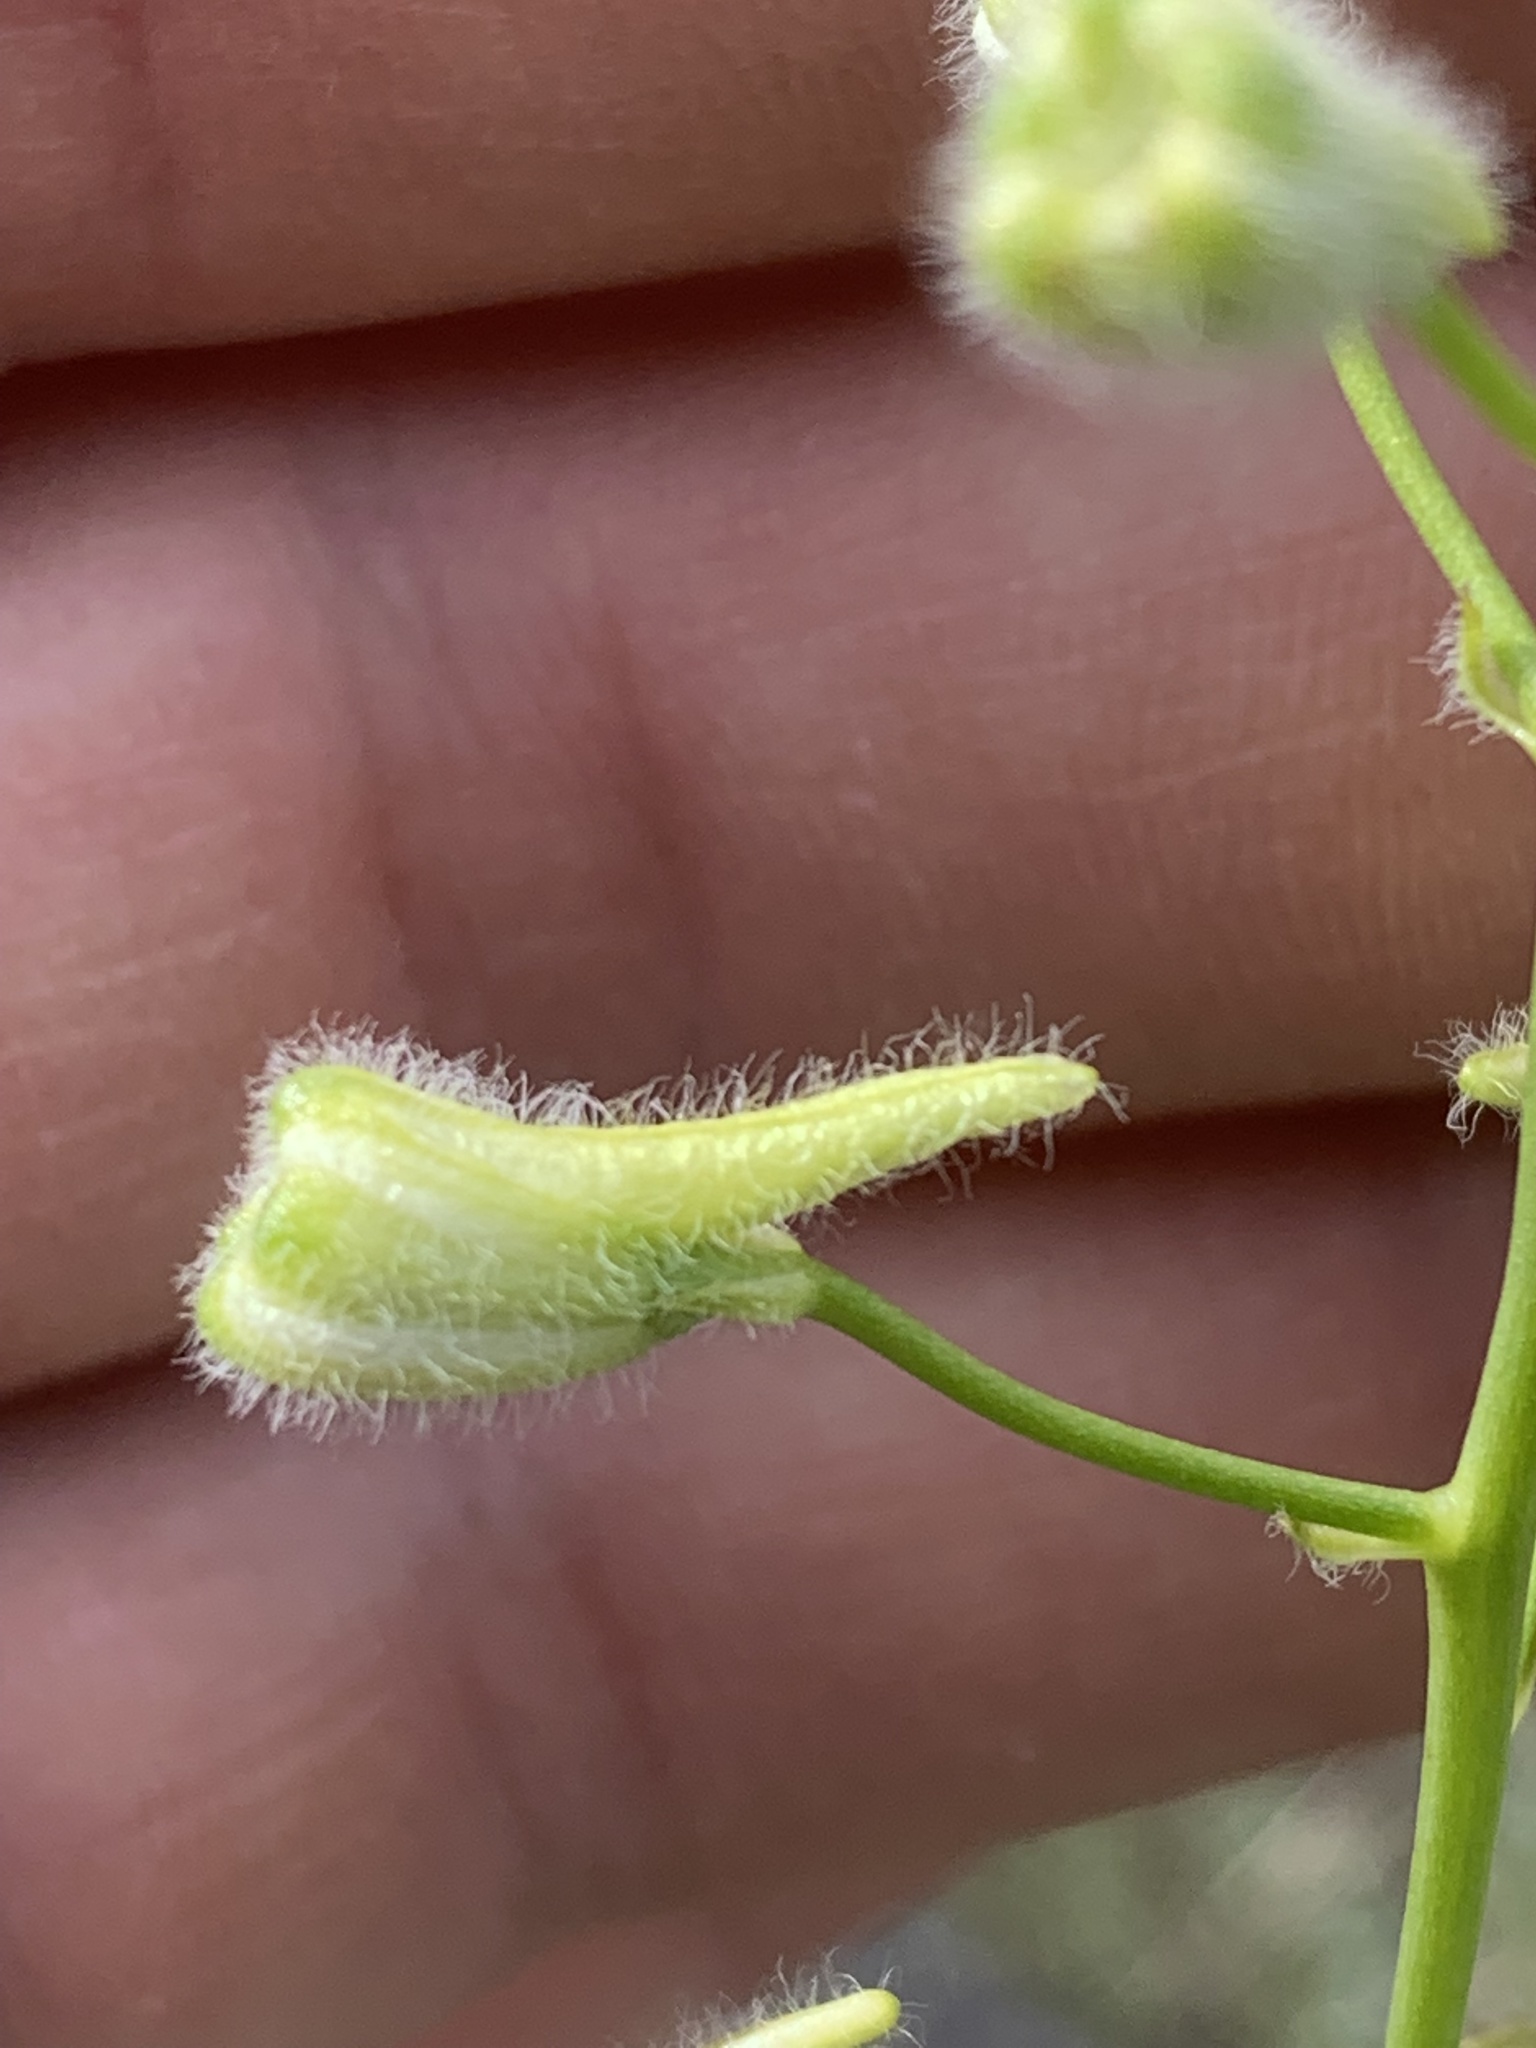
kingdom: Plantae
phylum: Tracheophyta
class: Magnoliopsida
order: Ranunculales
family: Ranunculaceae
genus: Delphinium
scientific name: Delphinium xantholeucum
